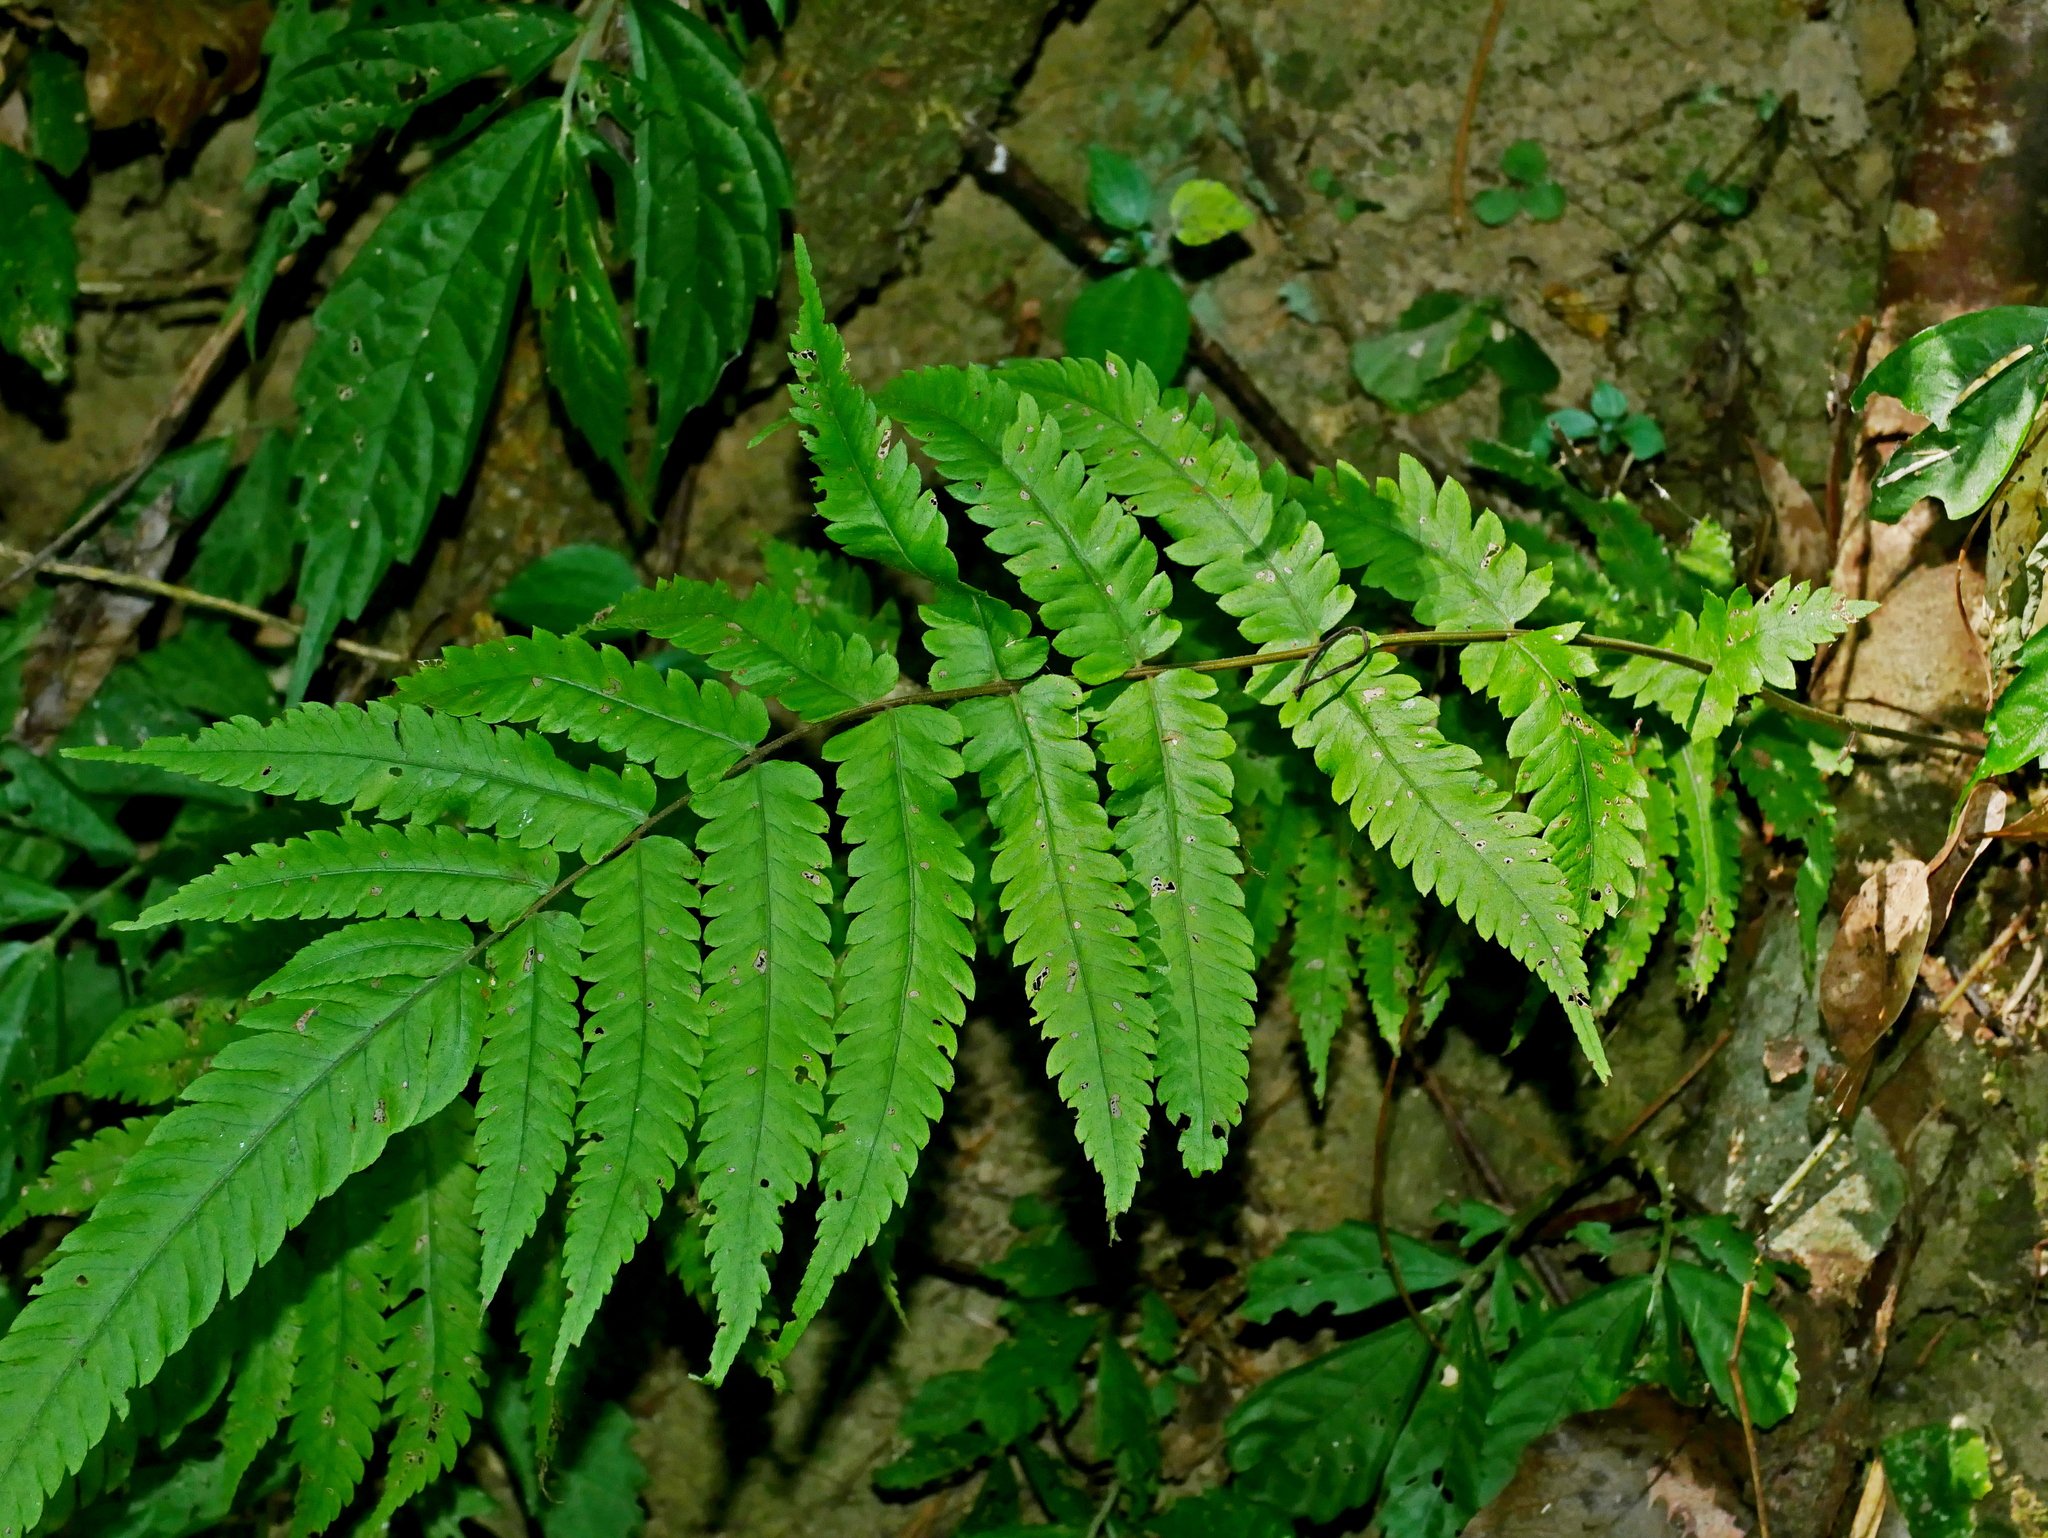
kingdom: Plantae
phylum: Tracheophyta
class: Polypodiopsida
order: Polypodiales
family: Thelypteridaceae
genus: Christella
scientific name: Christella jaculosa
